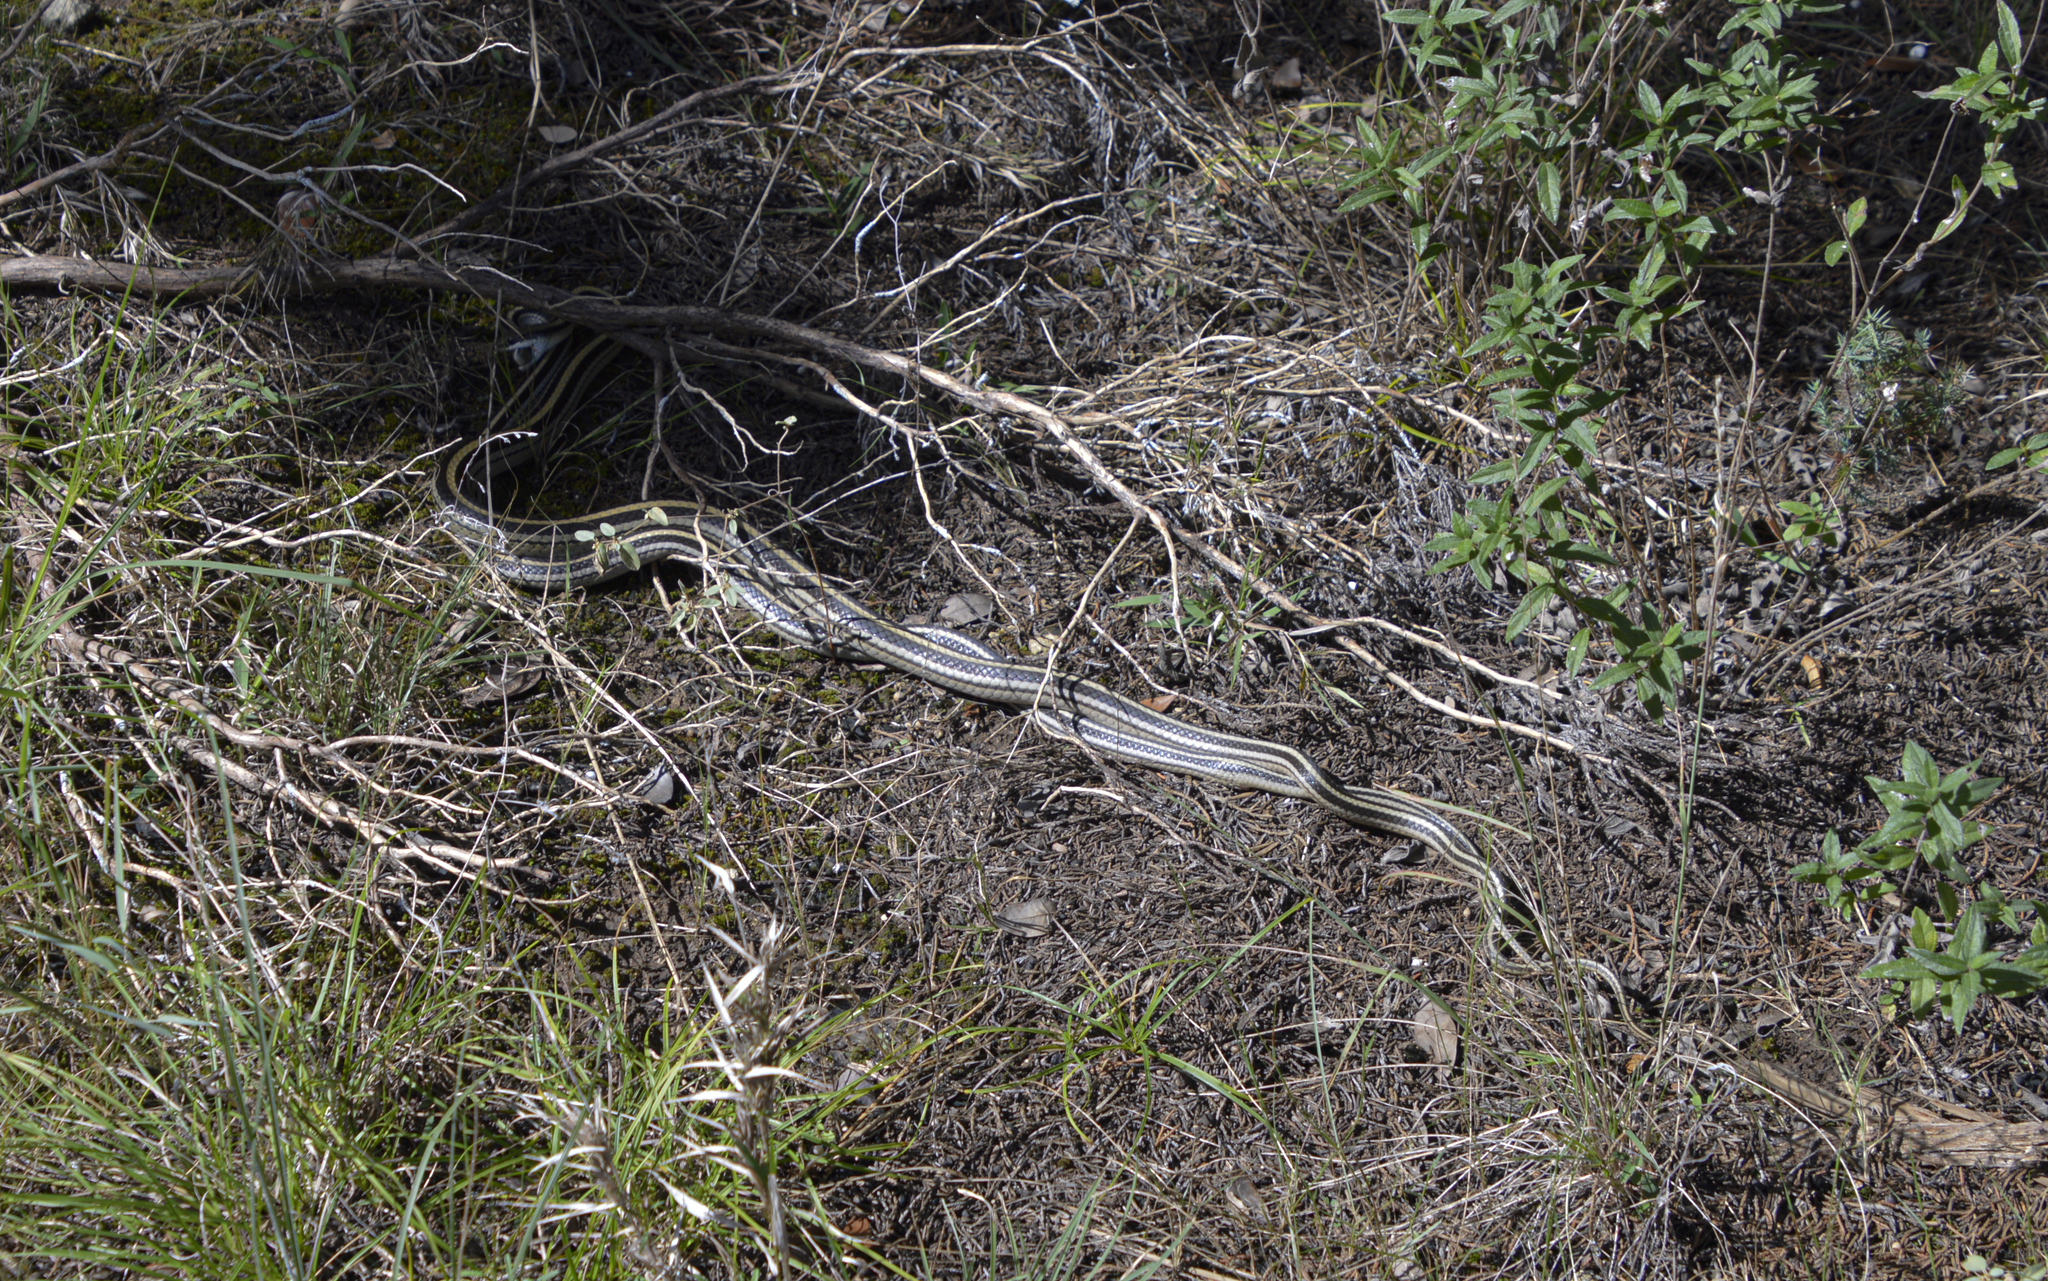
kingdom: Animalia
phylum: Chordata
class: Squamata
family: Colubridae
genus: Salvadora
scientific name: Salvadora lineata
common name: Texas patchnose snake
